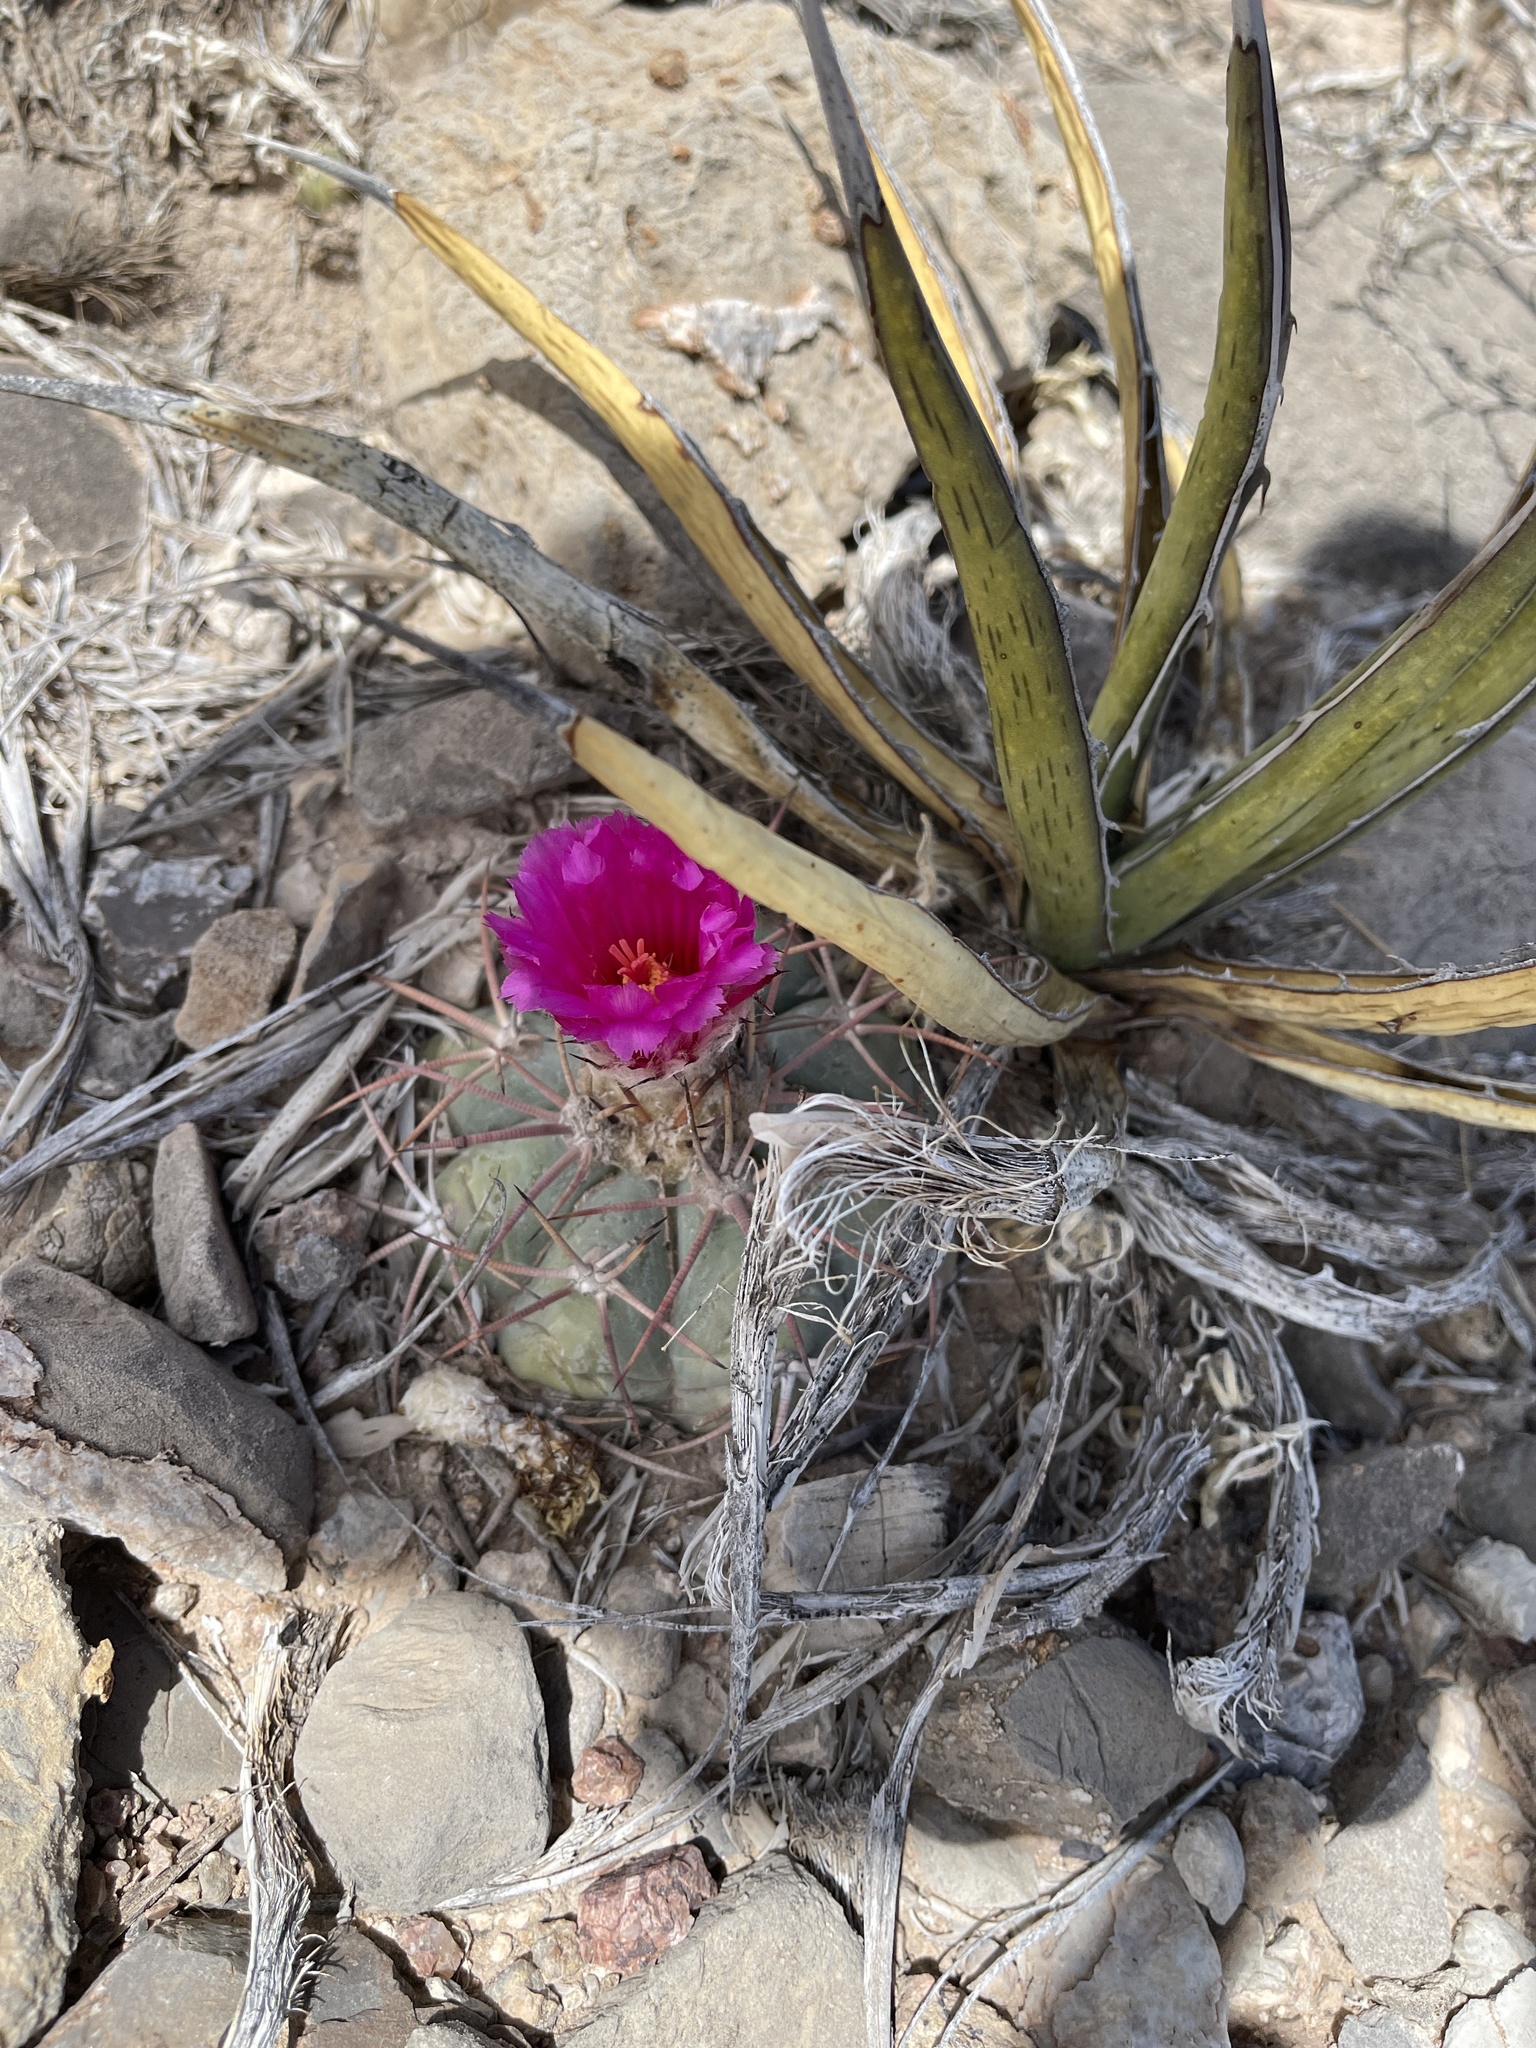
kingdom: Plantae
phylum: Tracheophyta
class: Magnoliopsida
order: Caryophyllales
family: Cactaceae
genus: Echinocactus
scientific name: Echinocactus horizonthalonius
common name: Devilshead
